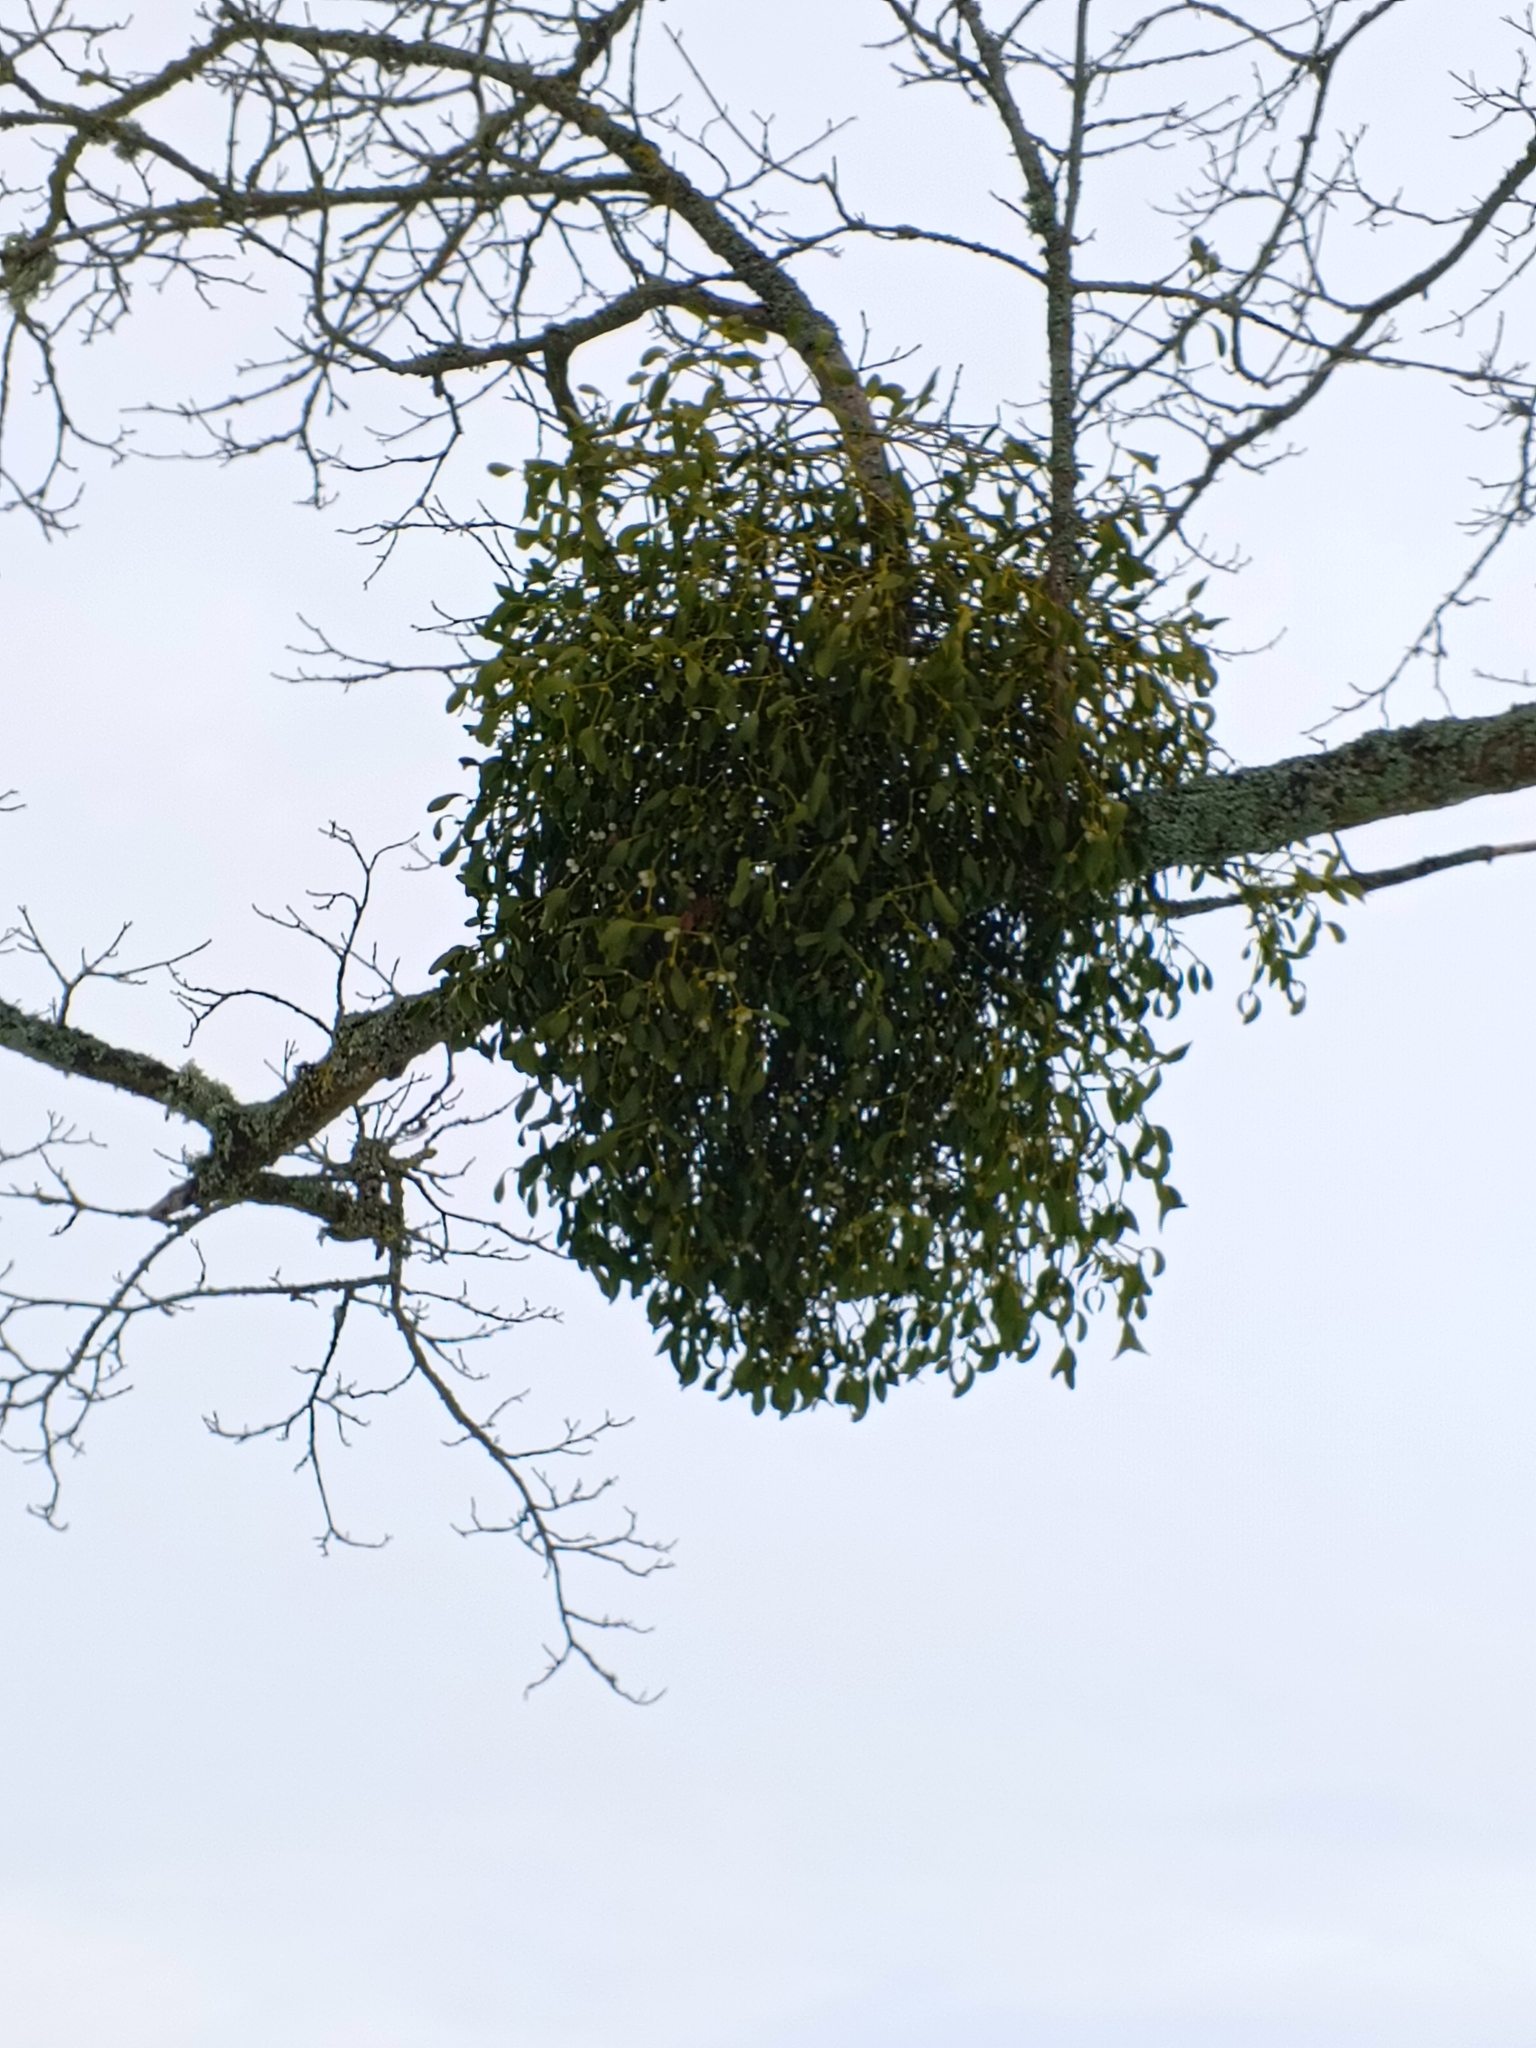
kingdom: Plantae
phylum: Tracheophyta
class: Magnoliopsida
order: Santalales
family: Viscaceae
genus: Viscum
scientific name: Viscum album
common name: Mistletoe
